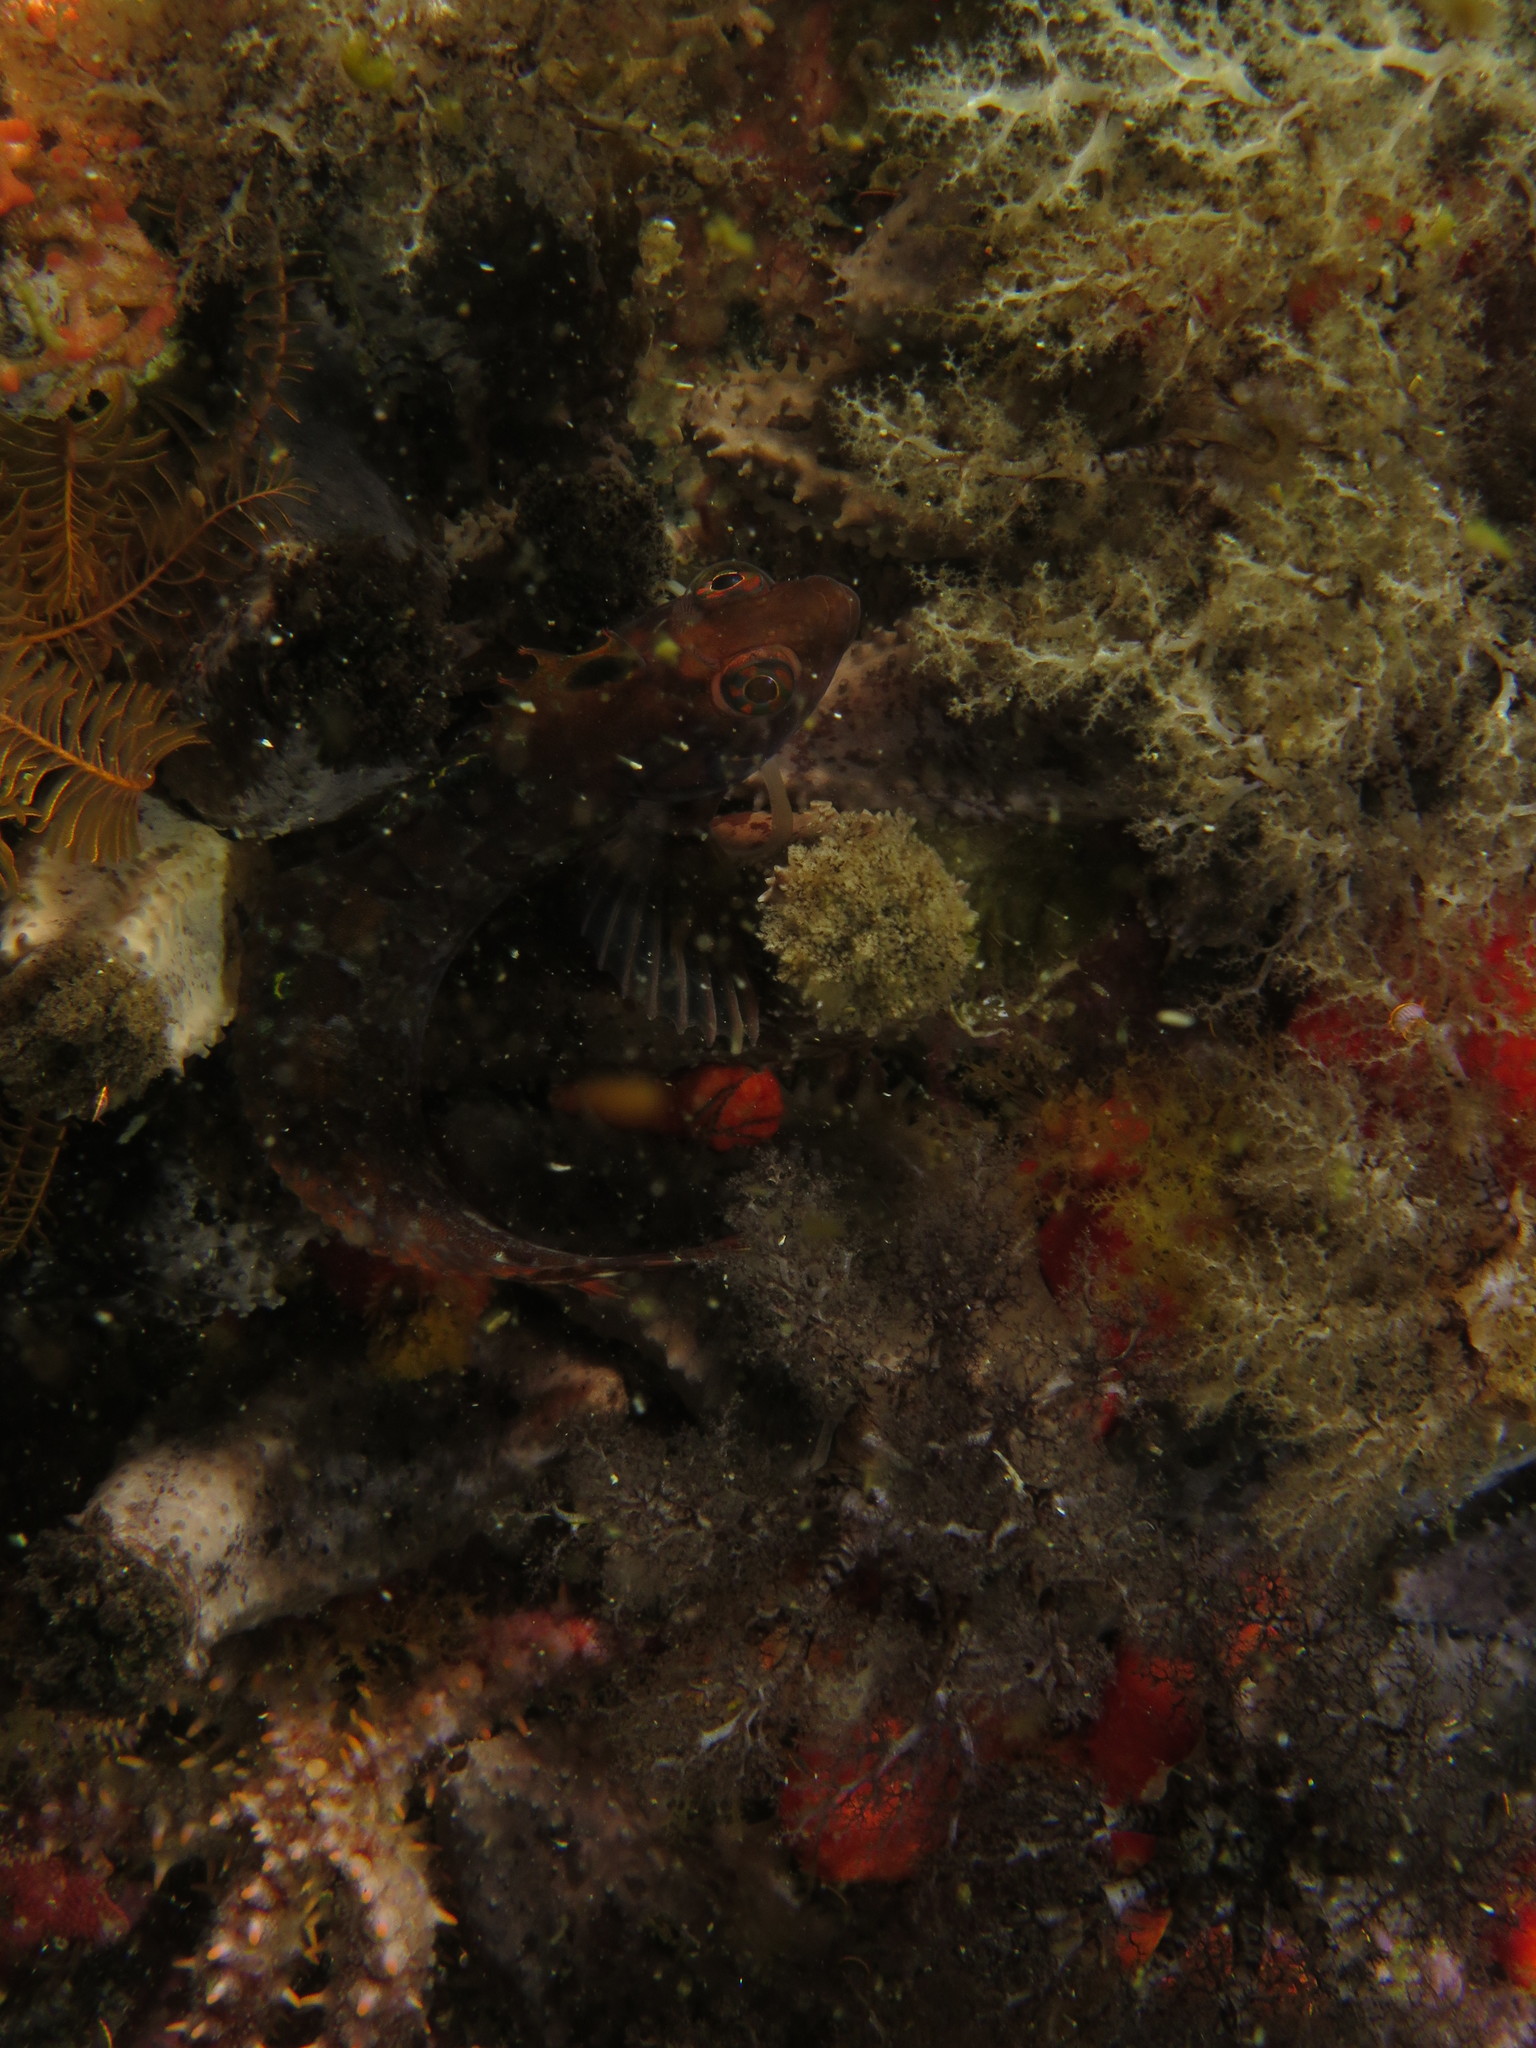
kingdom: Animalia
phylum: Chordata
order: Perciformes
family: Clinidae
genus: Clinus
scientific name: Clinus venustris
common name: Speckled klipfish
